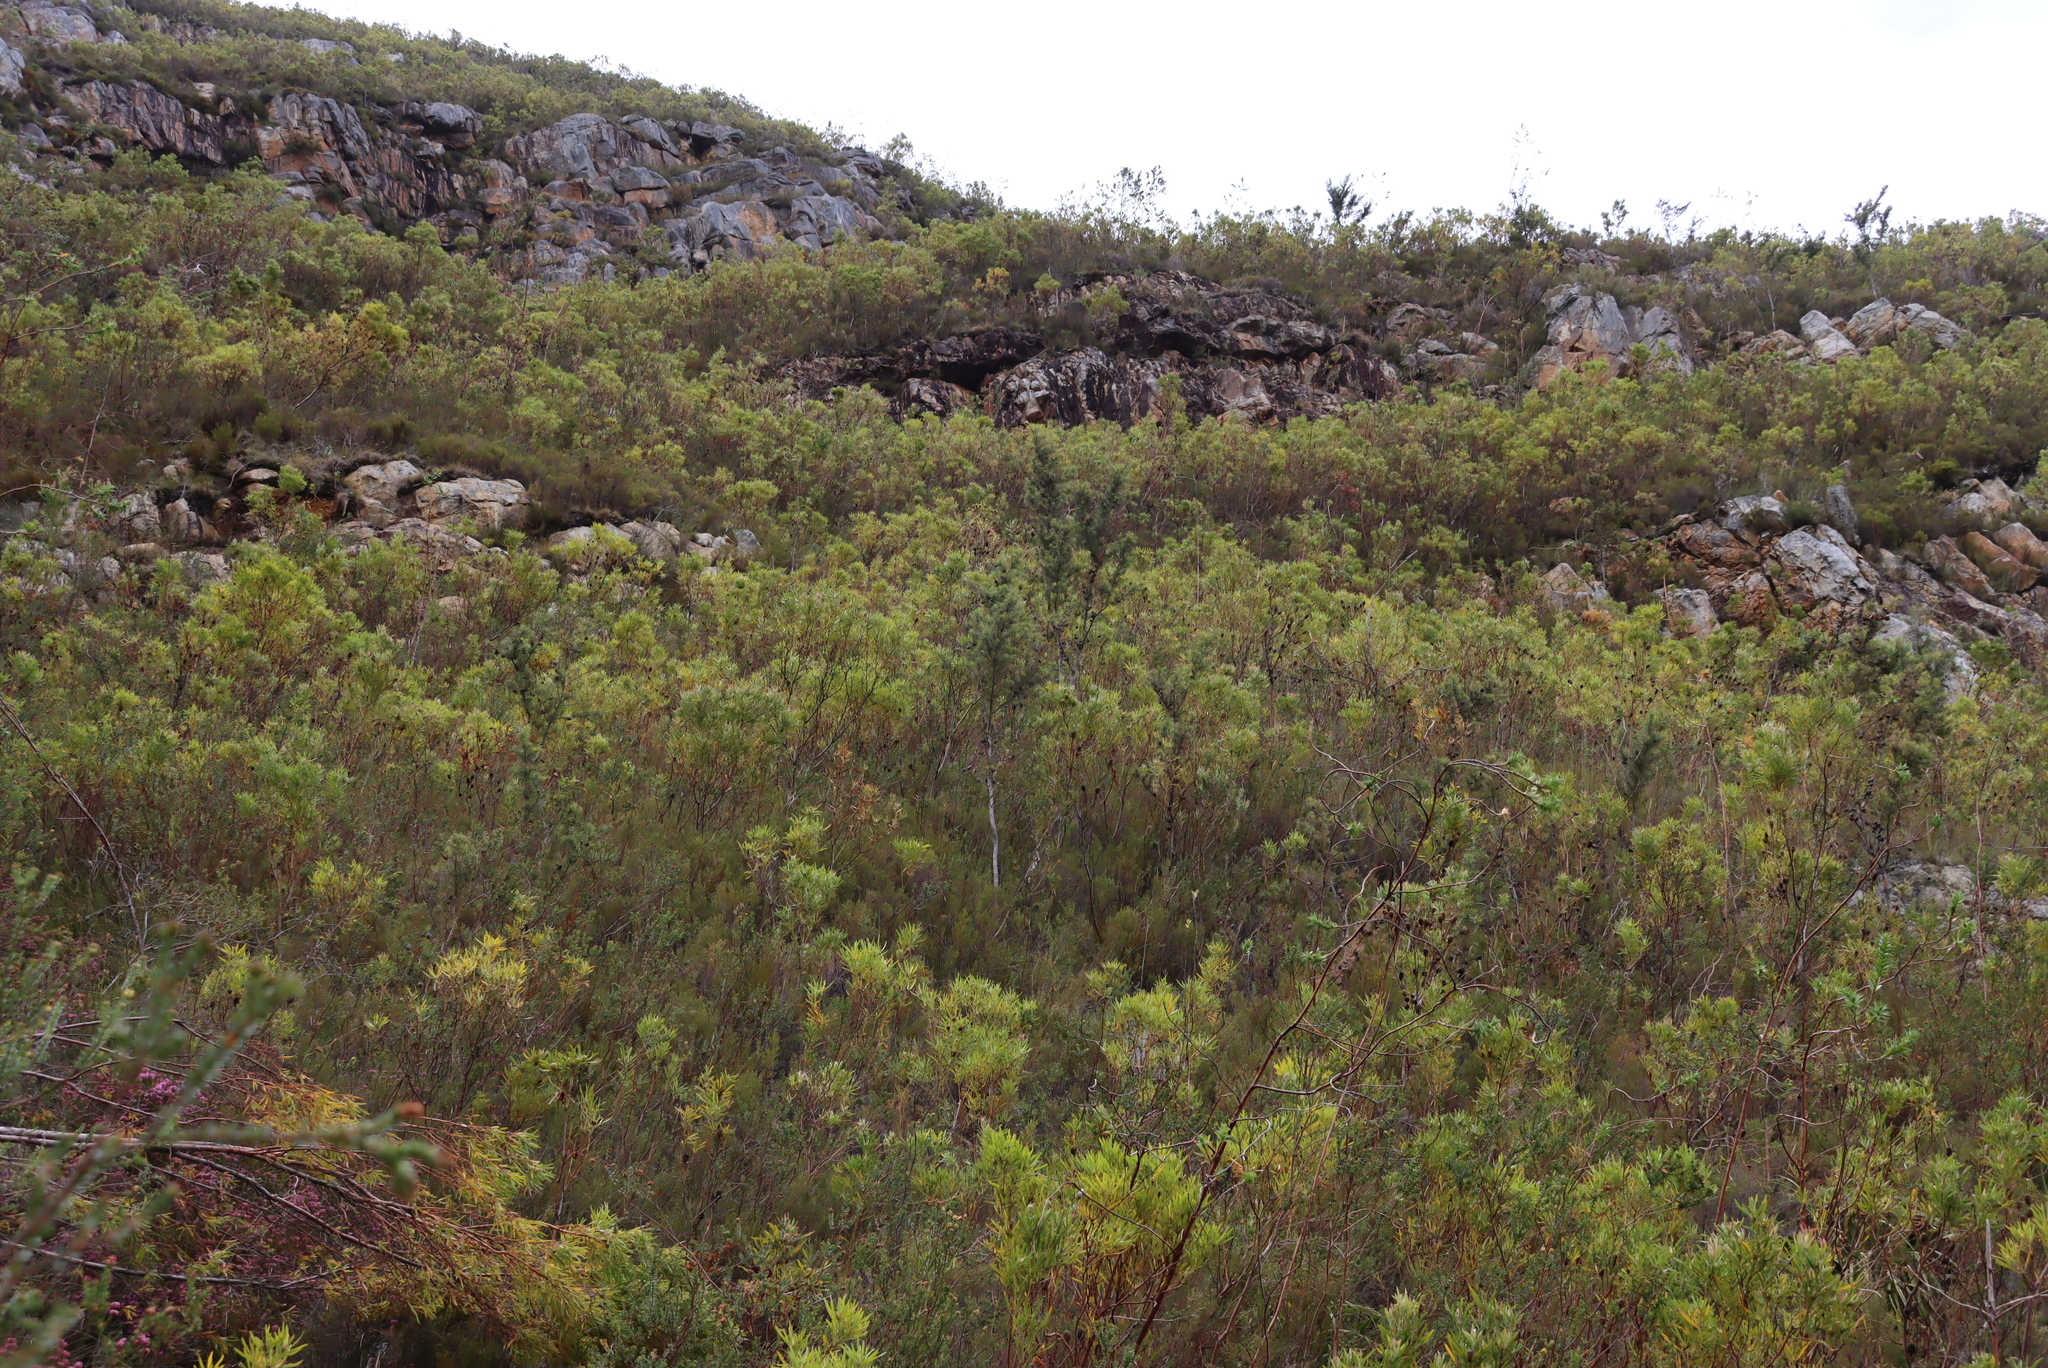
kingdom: Plantae
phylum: Tracheophyta
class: Magnoliopsida
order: Proteales
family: Proteaceae
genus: Hakea
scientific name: Hakea sericea
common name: Needle bush
